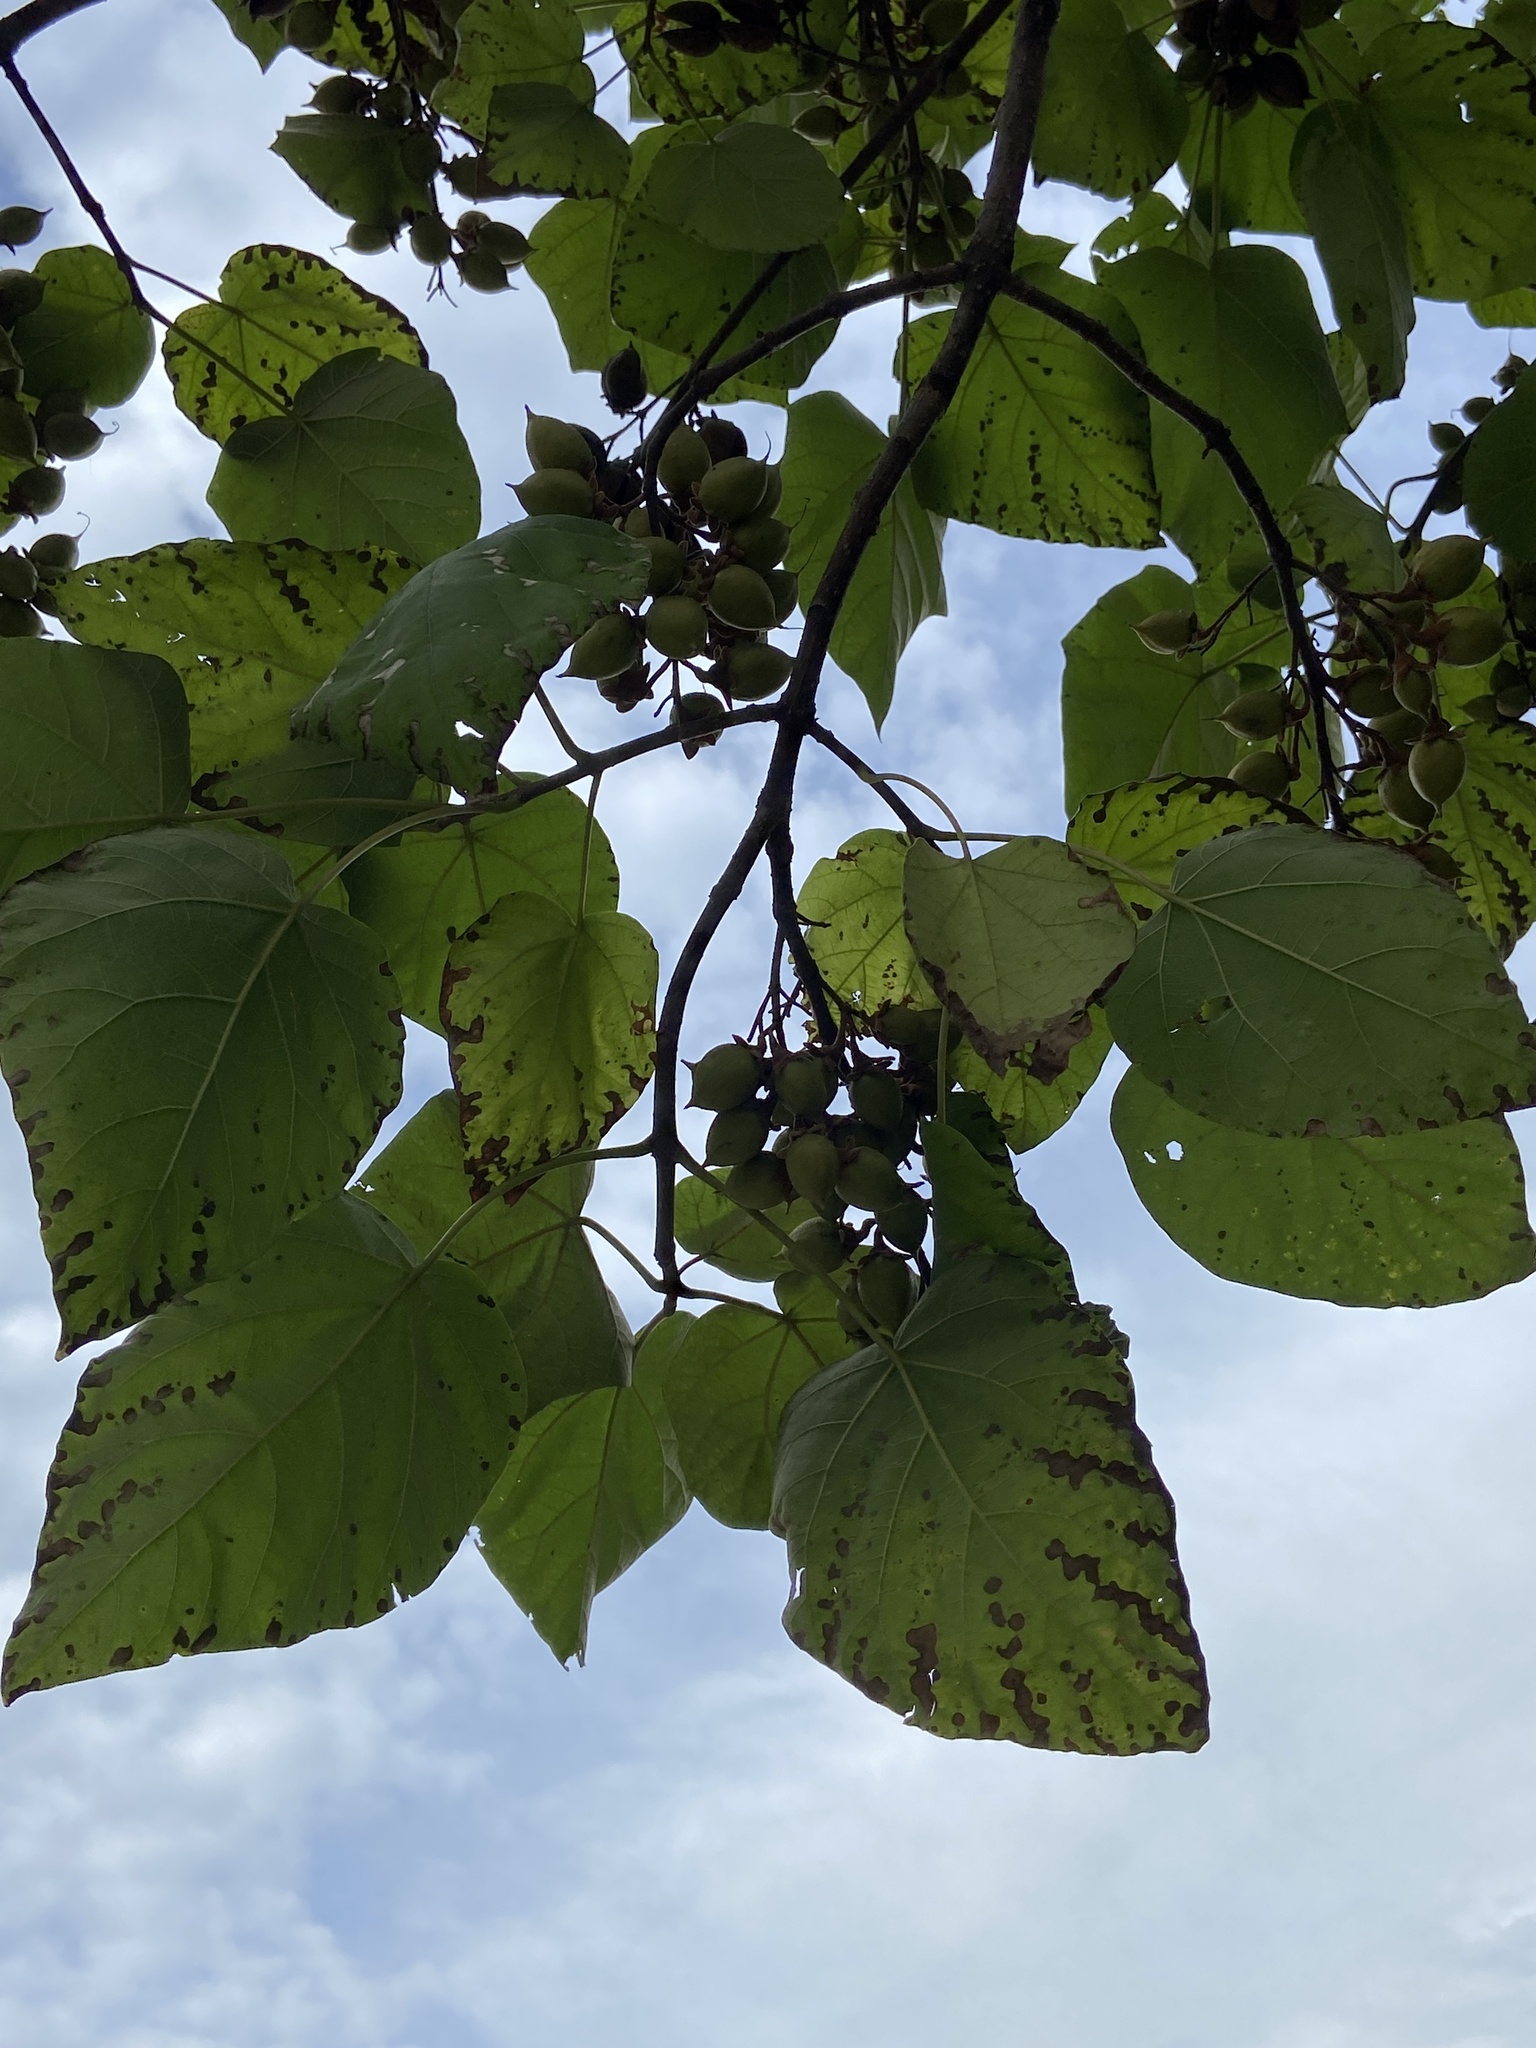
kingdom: Plantae
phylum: Tracheophyta
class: Magnoliopsida
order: Lamiales
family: Paulowniaceae
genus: Paulownia
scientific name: Paulownia tomentosa
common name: Foxglove-tree
